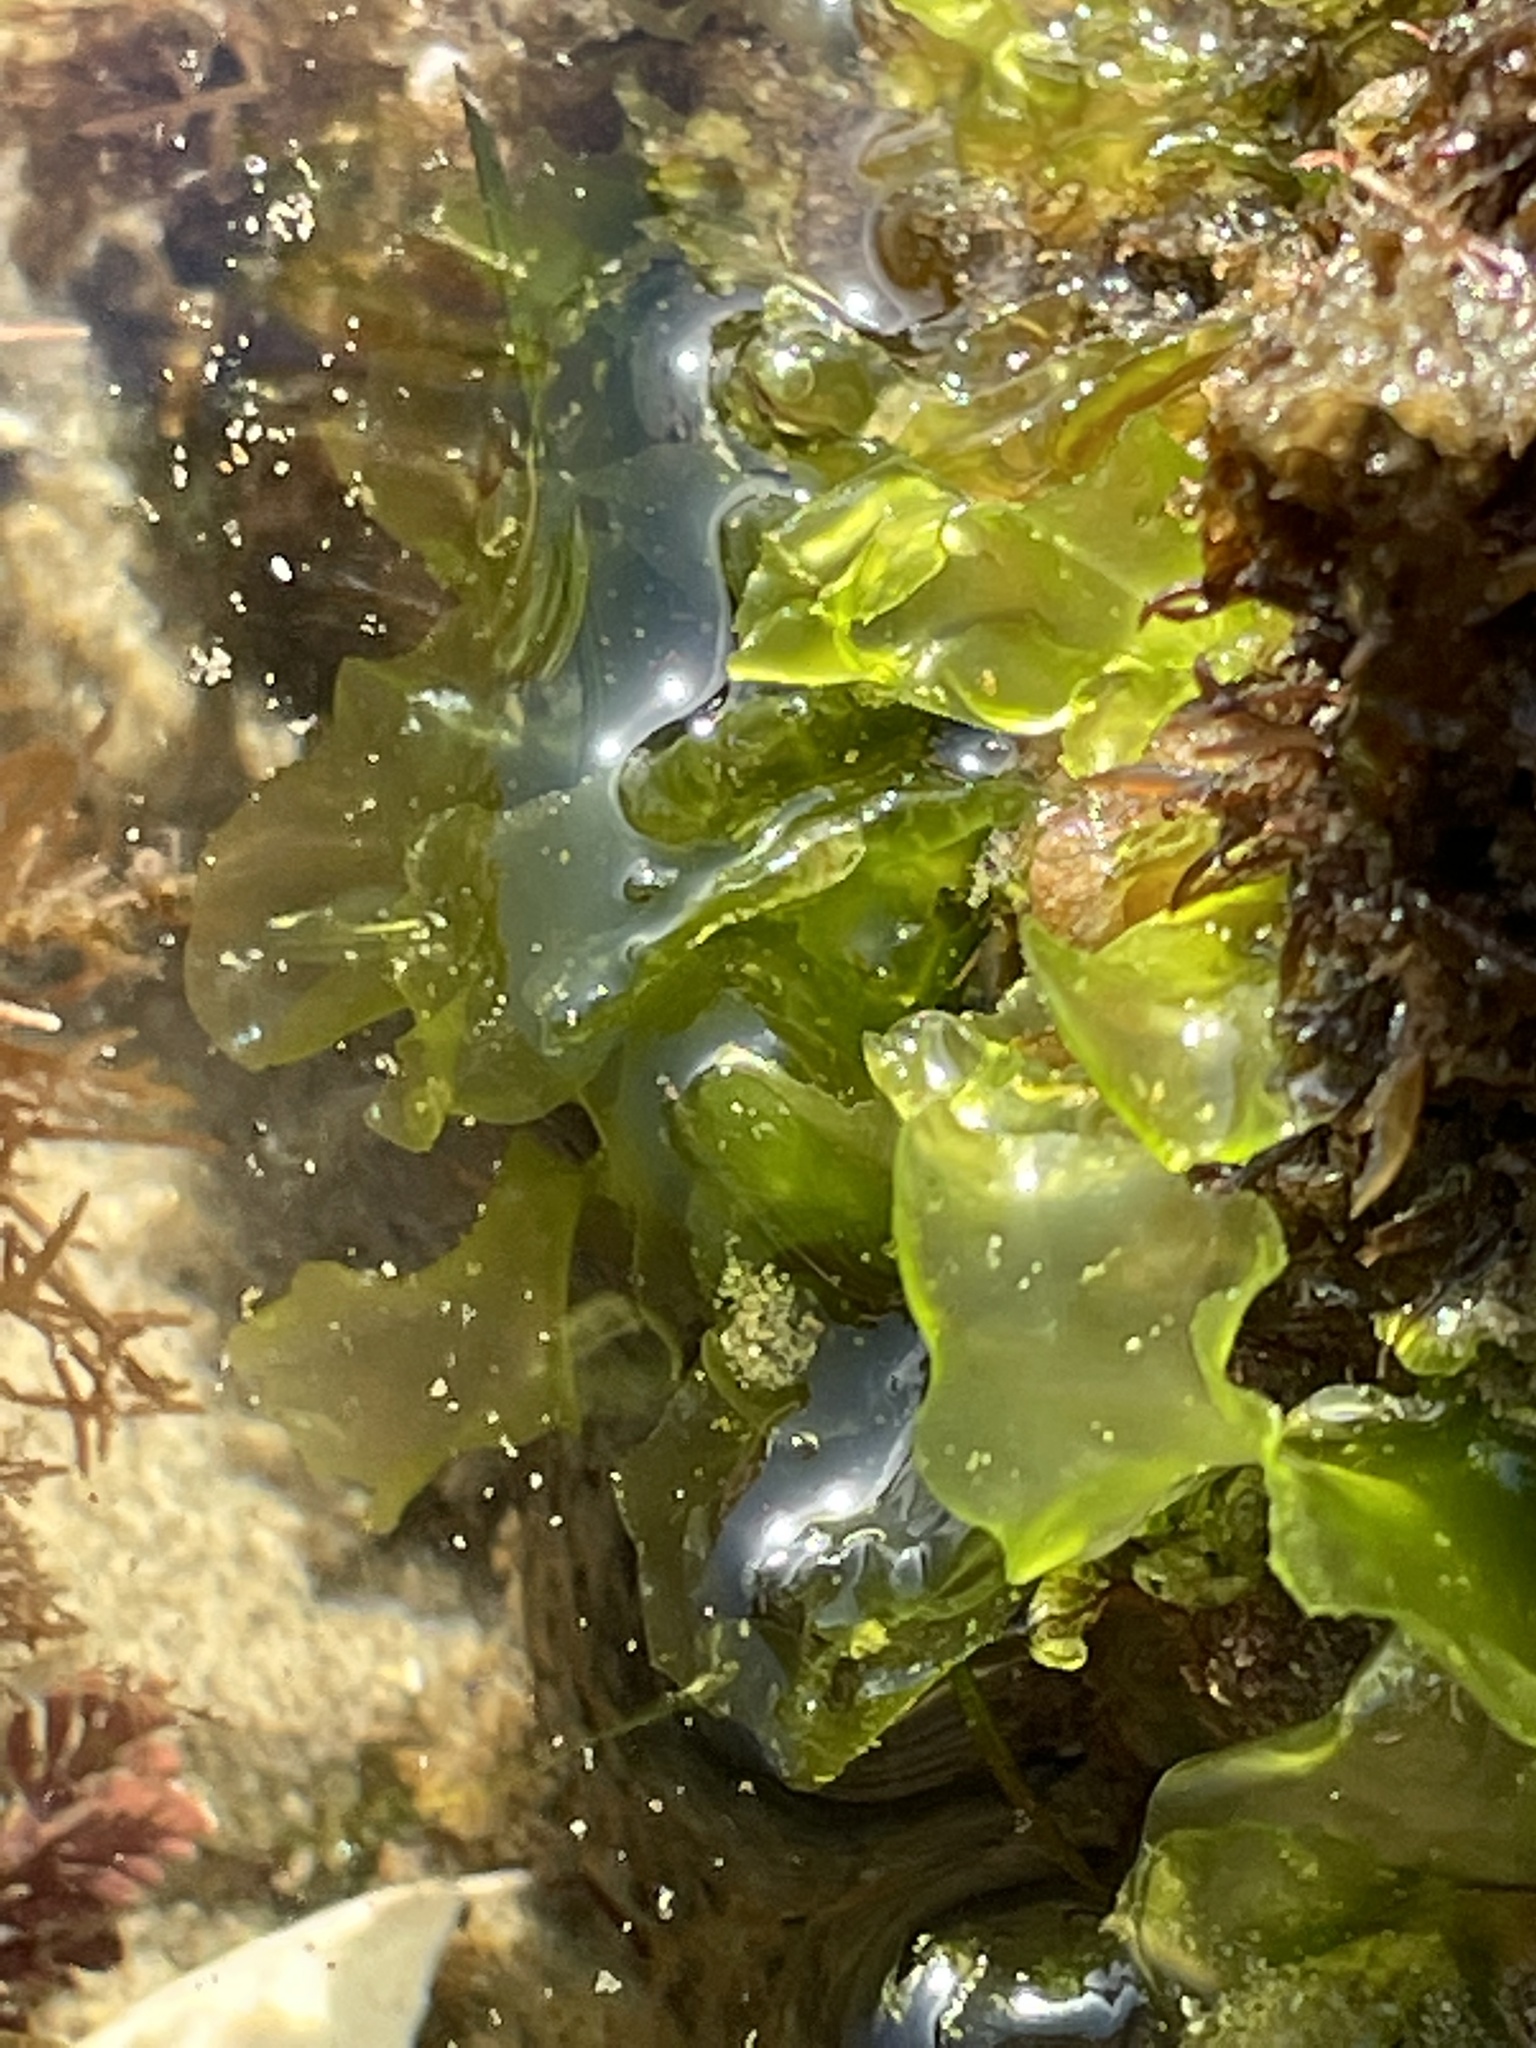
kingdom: Plantae
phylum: Chlorophyta
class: Ulvophyceae
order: Ulvales
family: Ulvaceae
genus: Ulva
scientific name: Ulva lactuca
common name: Sea lettuce
